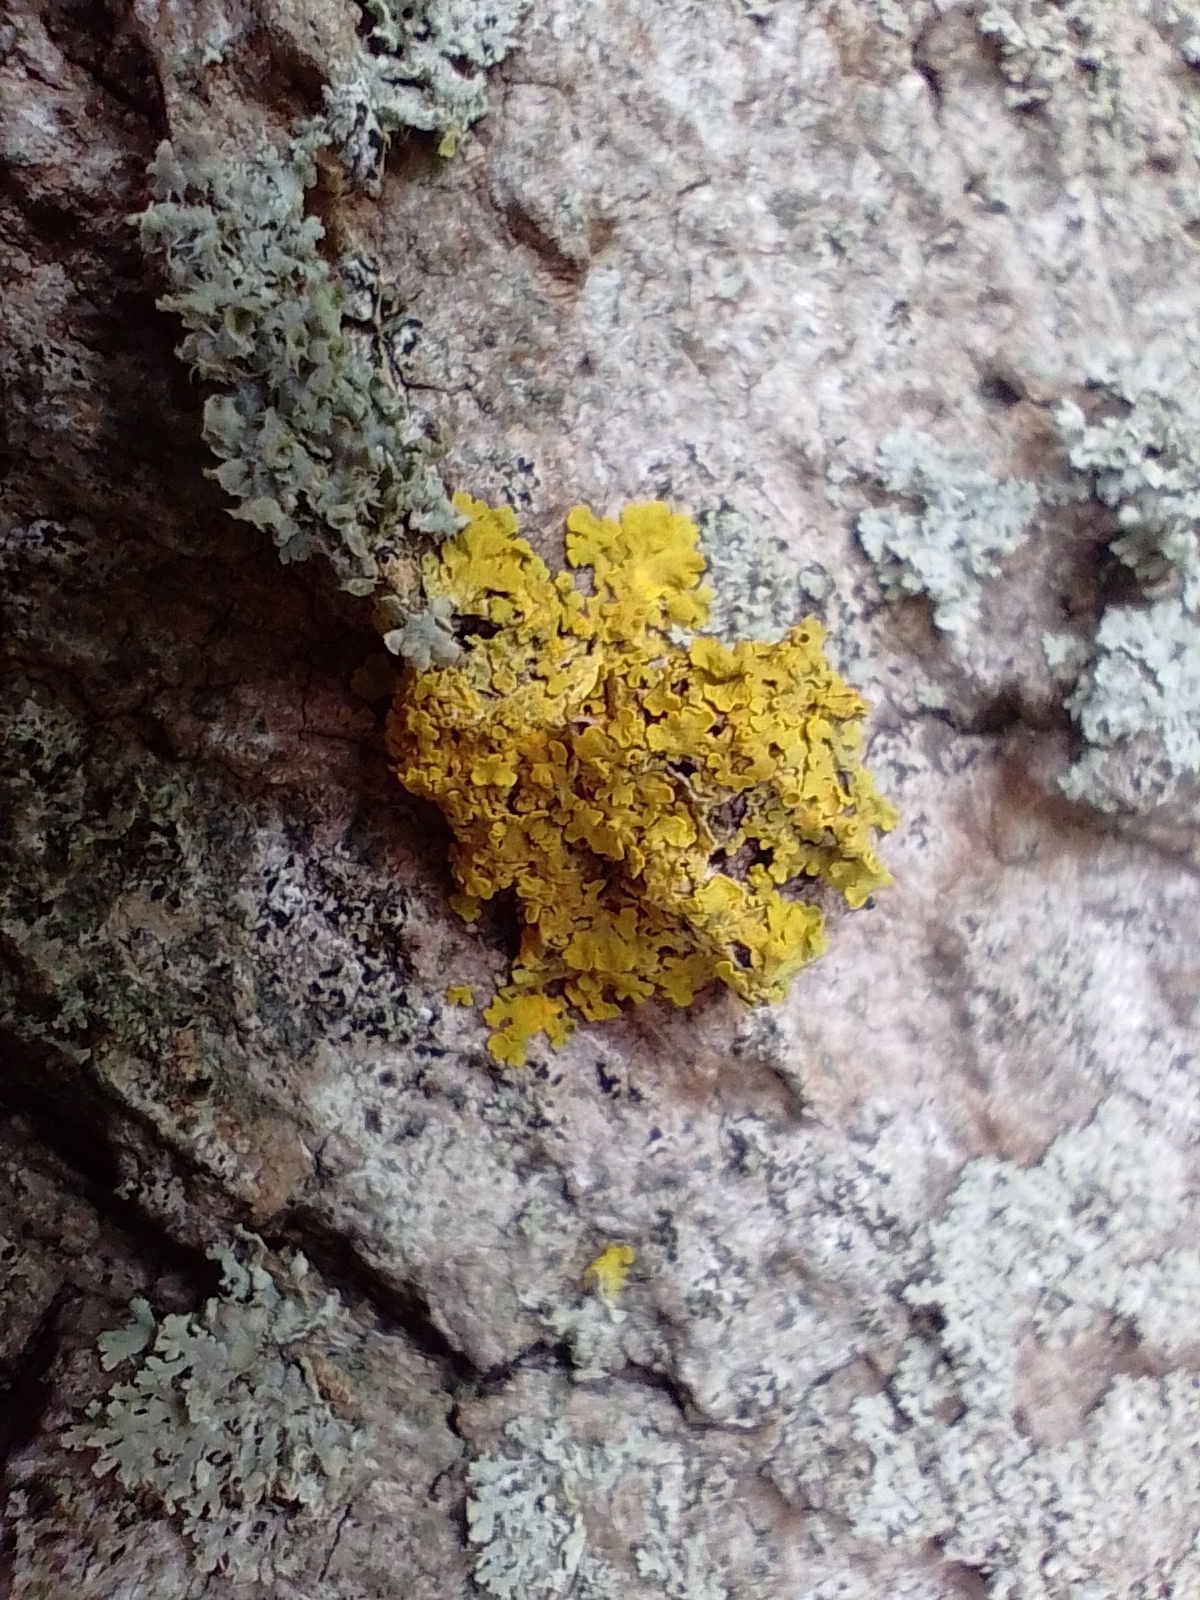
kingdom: Fungi
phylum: Ascomycota
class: Lecanoromycetes
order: Teloschistales
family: Teloschistaceae
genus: Xanthoria
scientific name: Xanthoria parietina
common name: Common orange lichen
